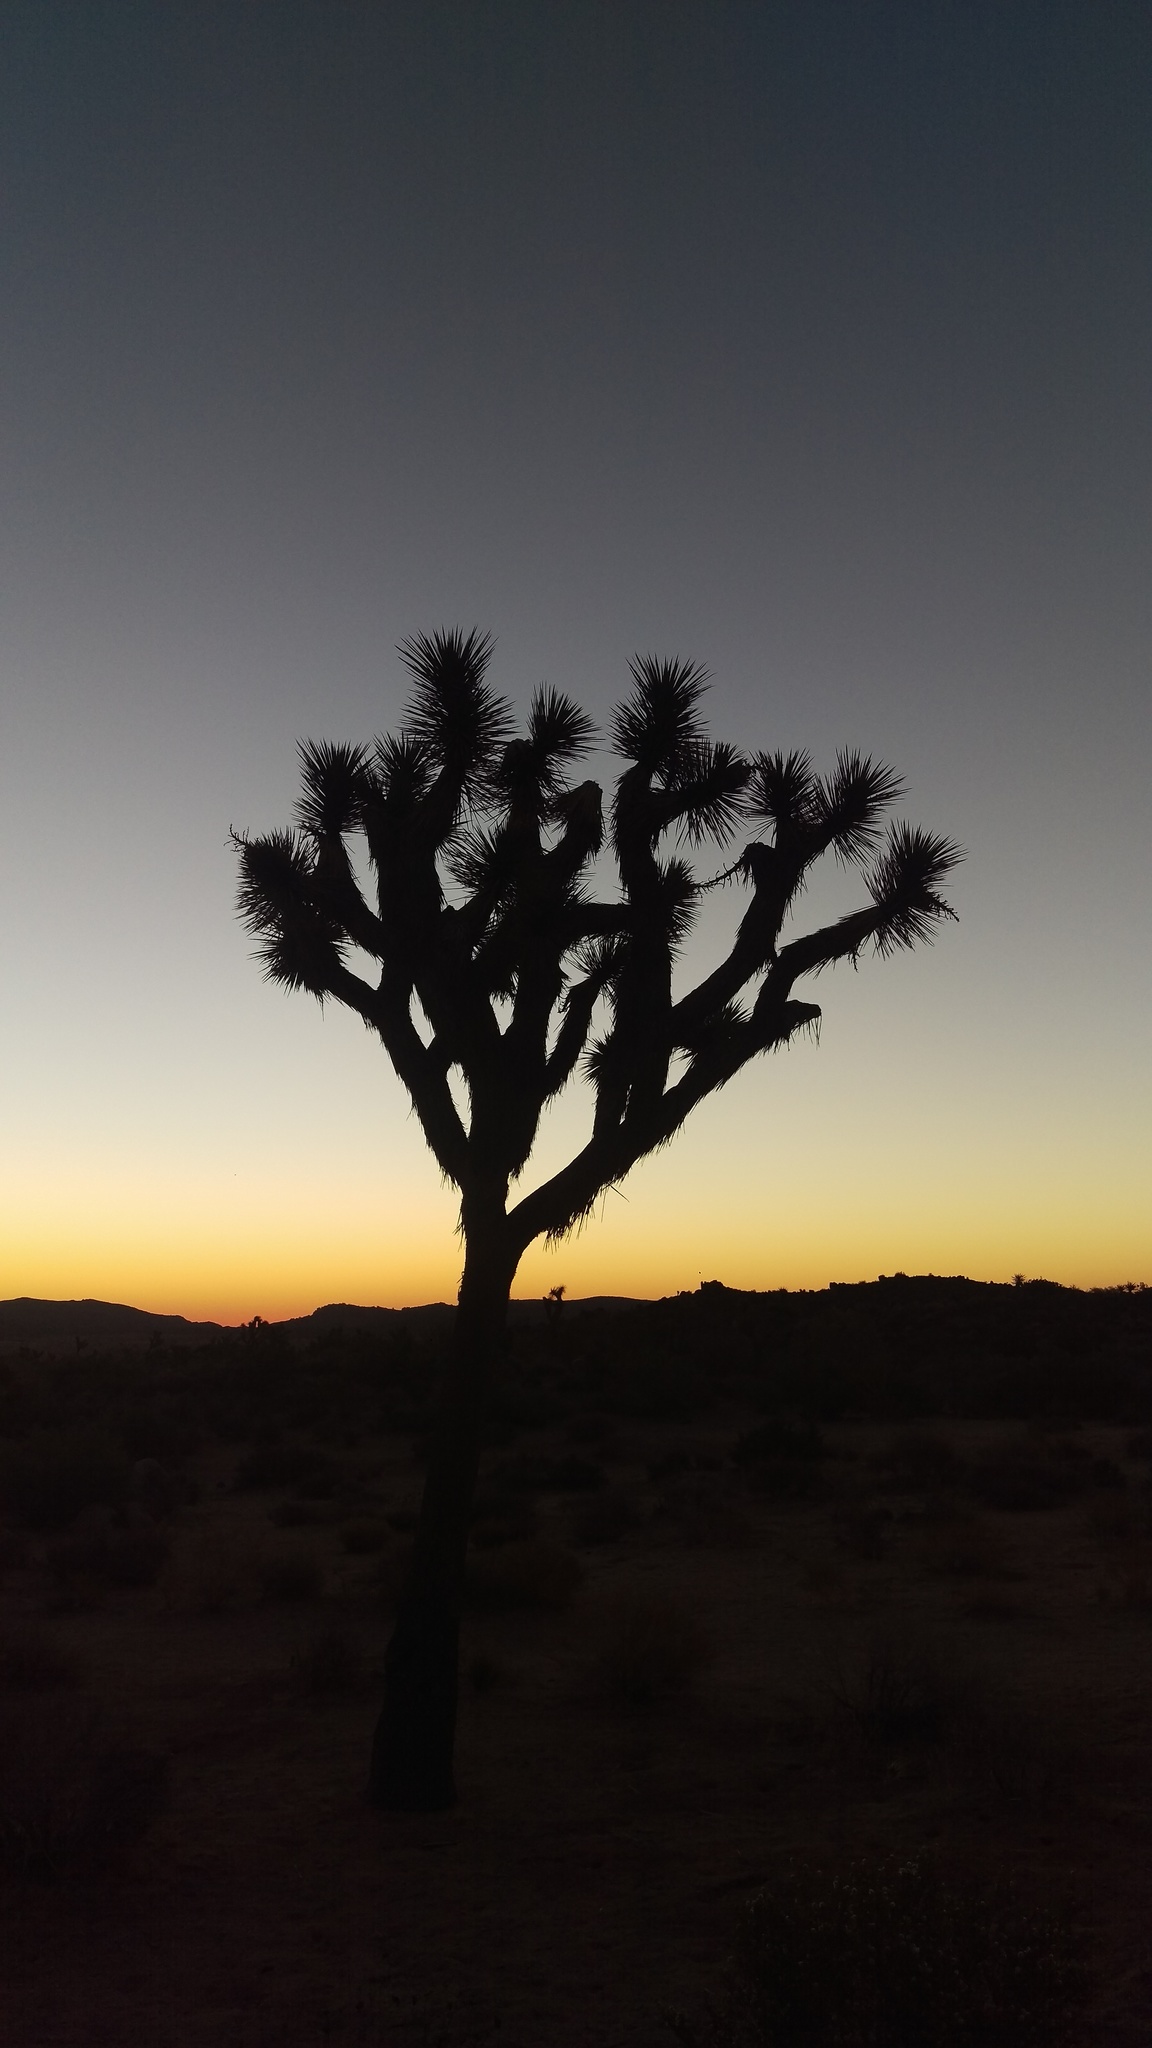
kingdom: Plantae
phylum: Tracheophyta
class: Liliopsida
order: Asparagales
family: Asparagaceae
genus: Yucca
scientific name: Yucca brevifolia
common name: Joshua tree
